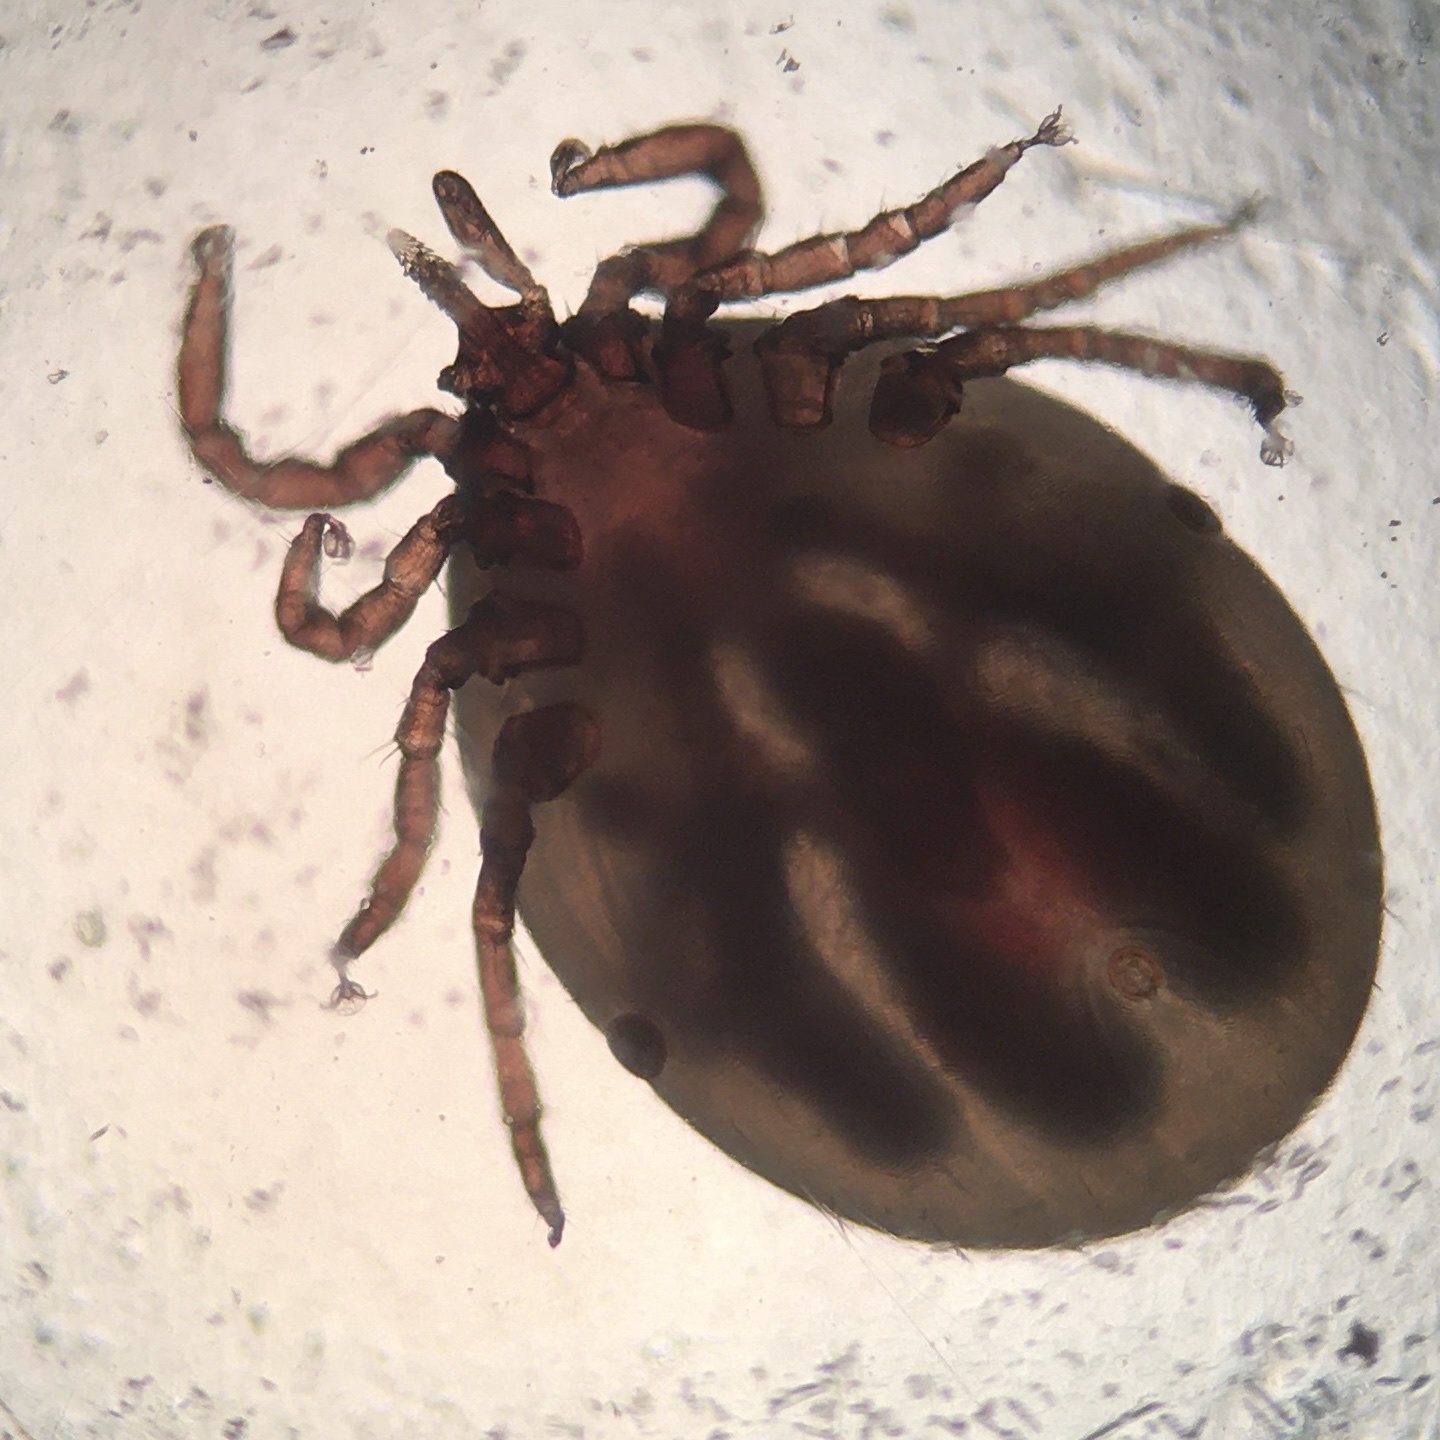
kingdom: Animalia
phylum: Arthropoda
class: Arachnida
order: Ixodida
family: Ixodidae
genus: Ixodes
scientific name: Ixodes ricinus
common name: Castor bean tick
